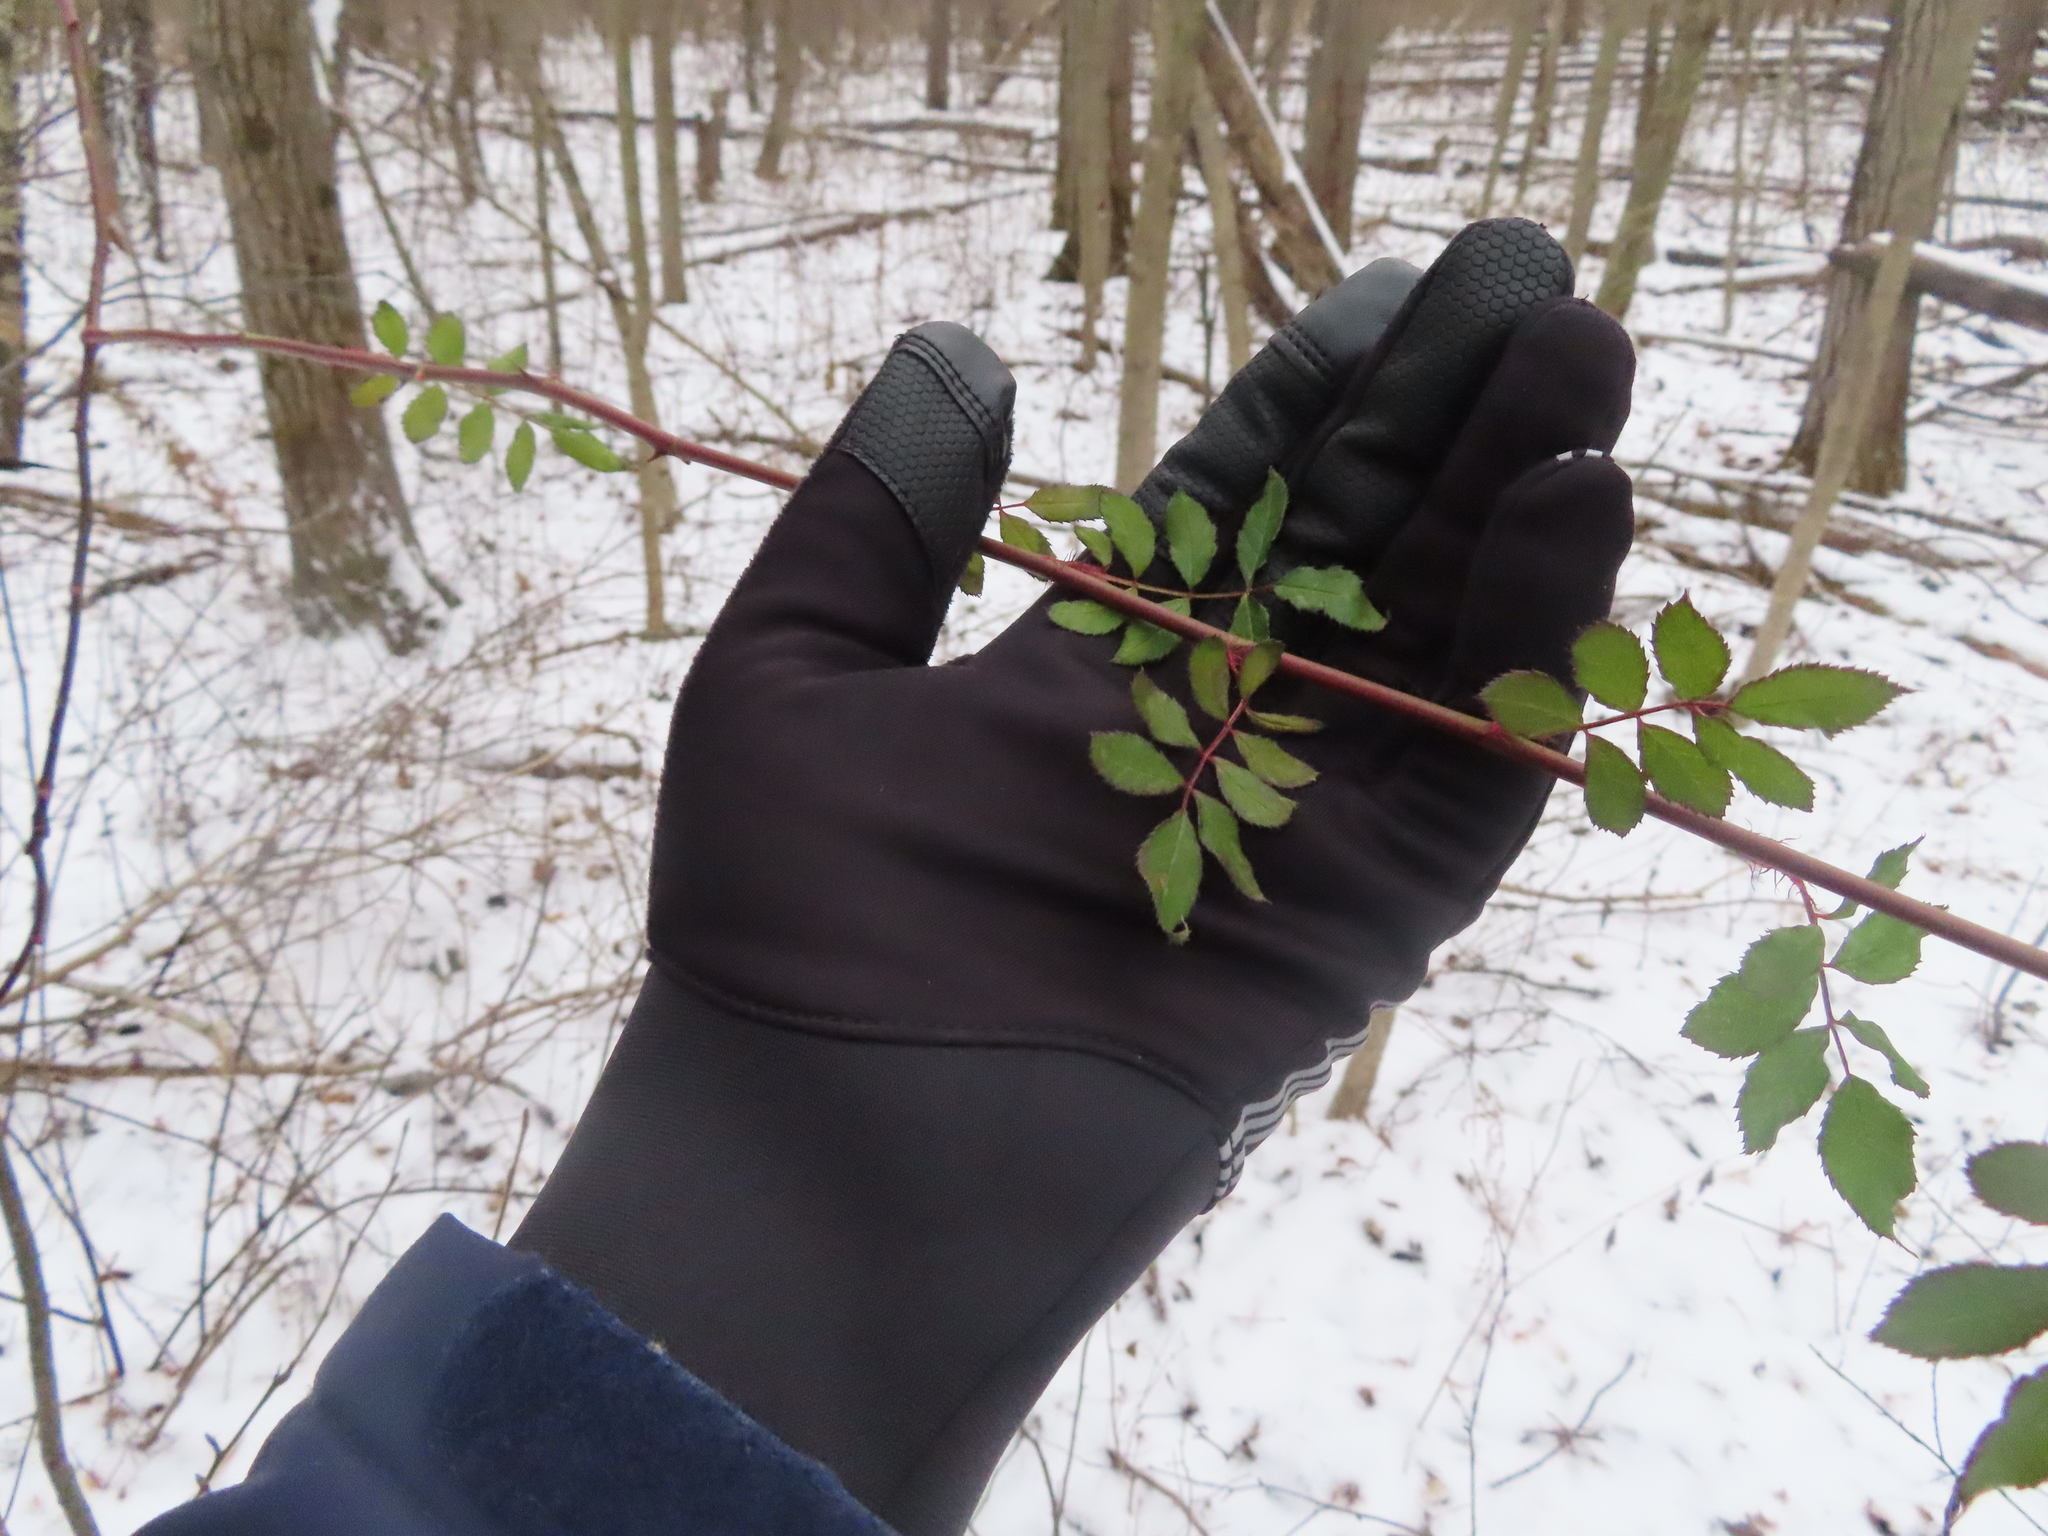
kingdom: Plantae
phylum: Tracheophyta
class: Magnoliopsida
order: Rosales
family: Rosaceae
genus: Rosa
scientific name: Rosa multiflora
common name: Multiflora rose
